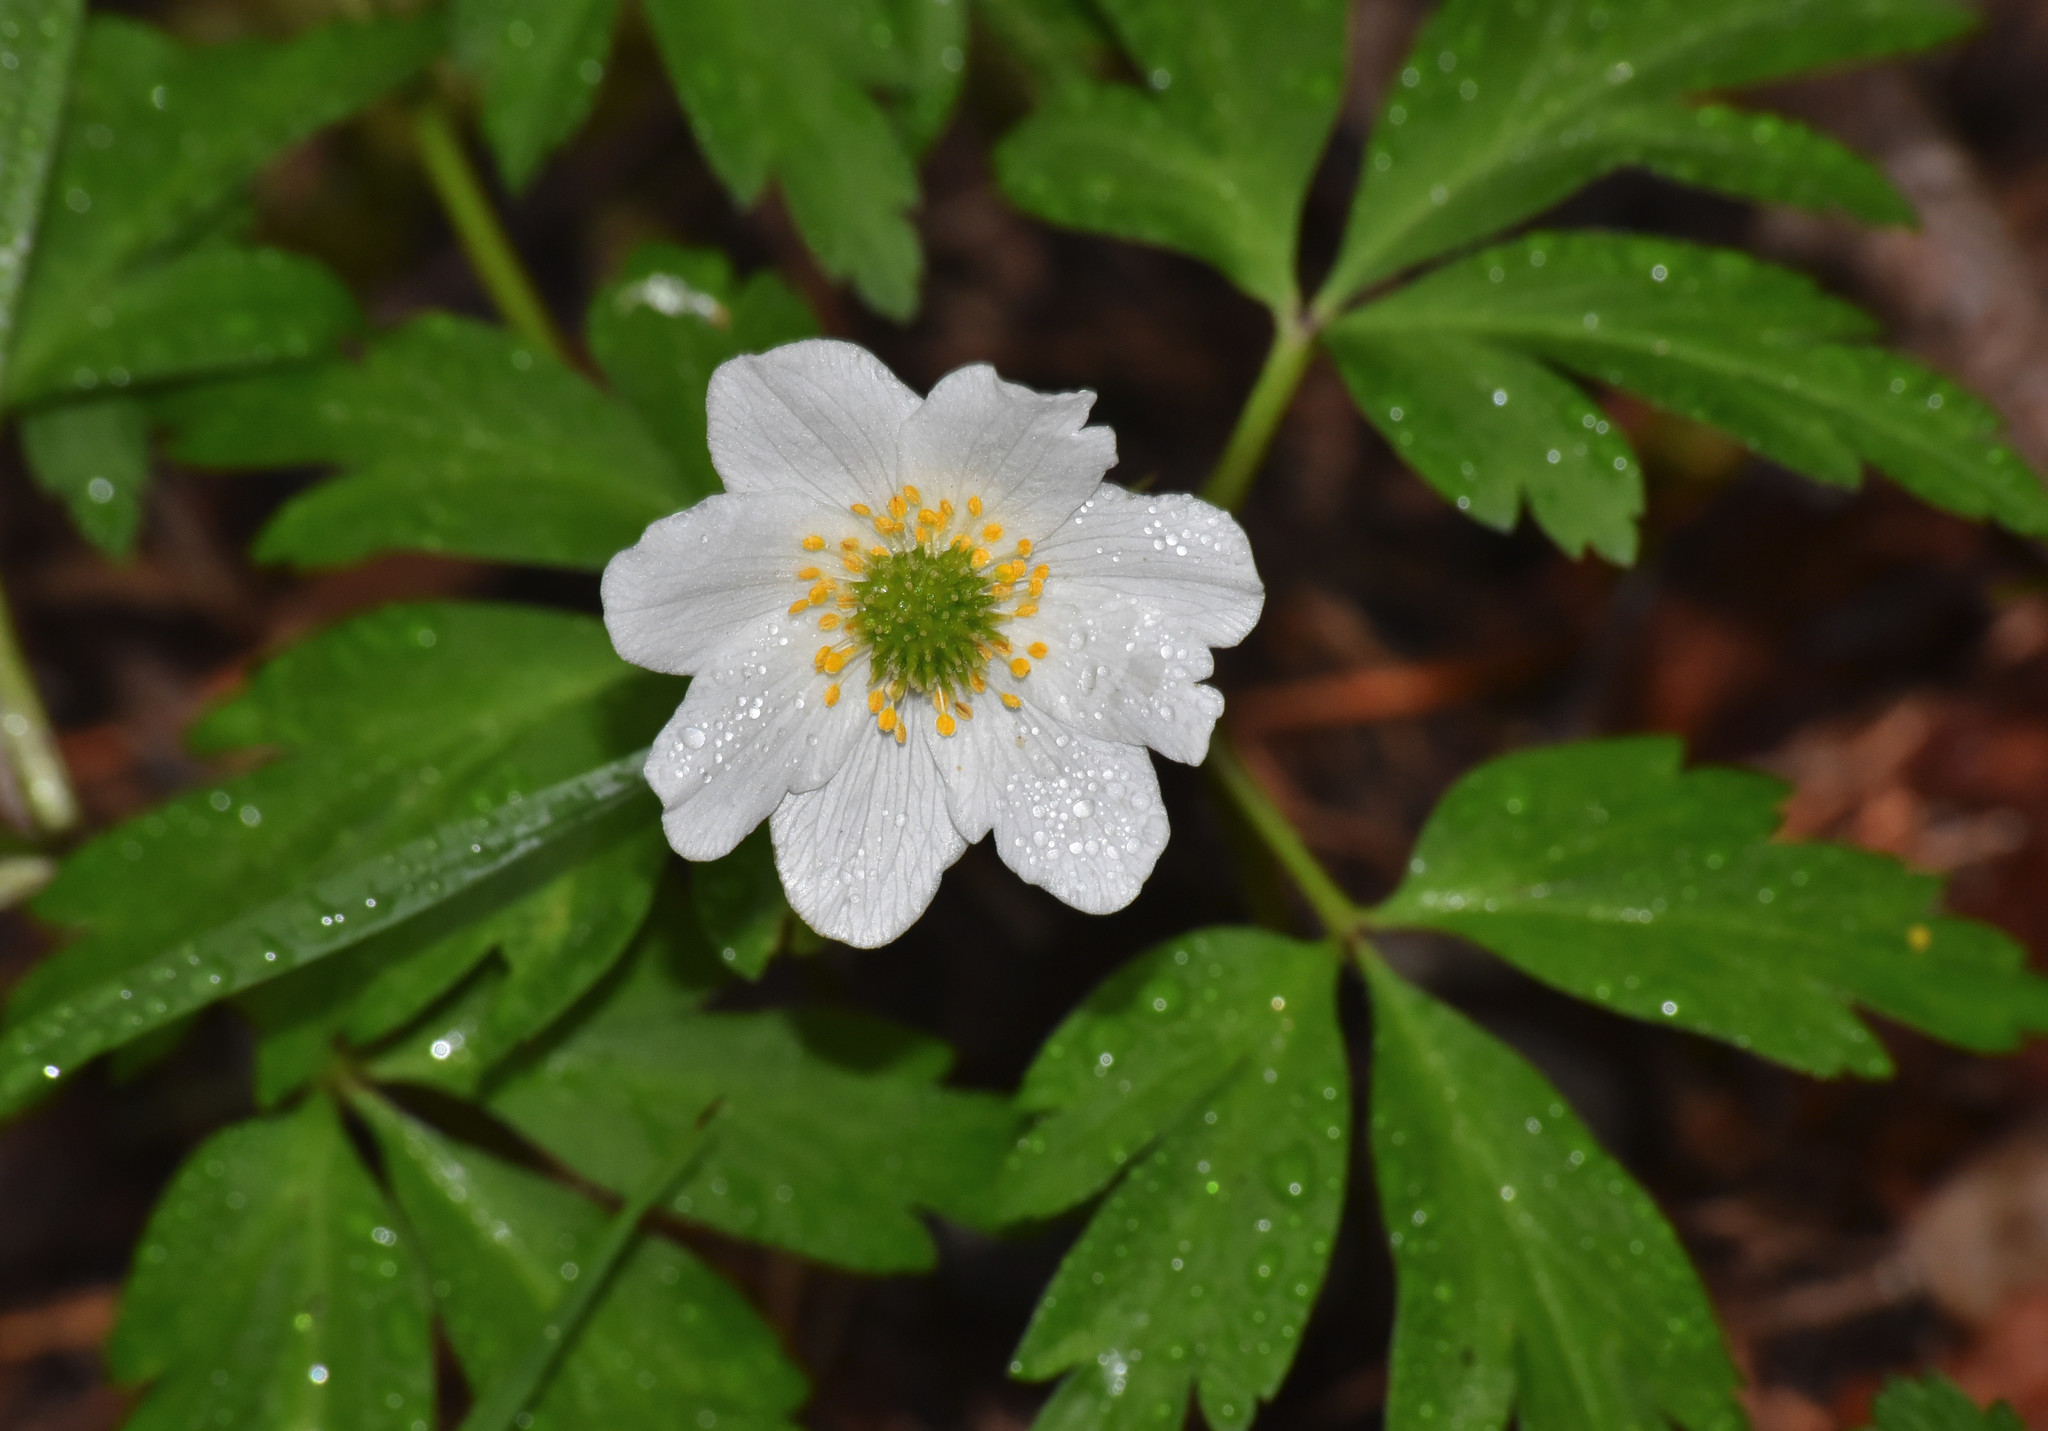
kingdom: Plantae
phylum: Tracheophyta
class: Magnoliopsida
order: Ranunculales
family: Ranunculaceae
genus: Anemone
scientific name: Anemone nemorosa
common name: Wood anemone
